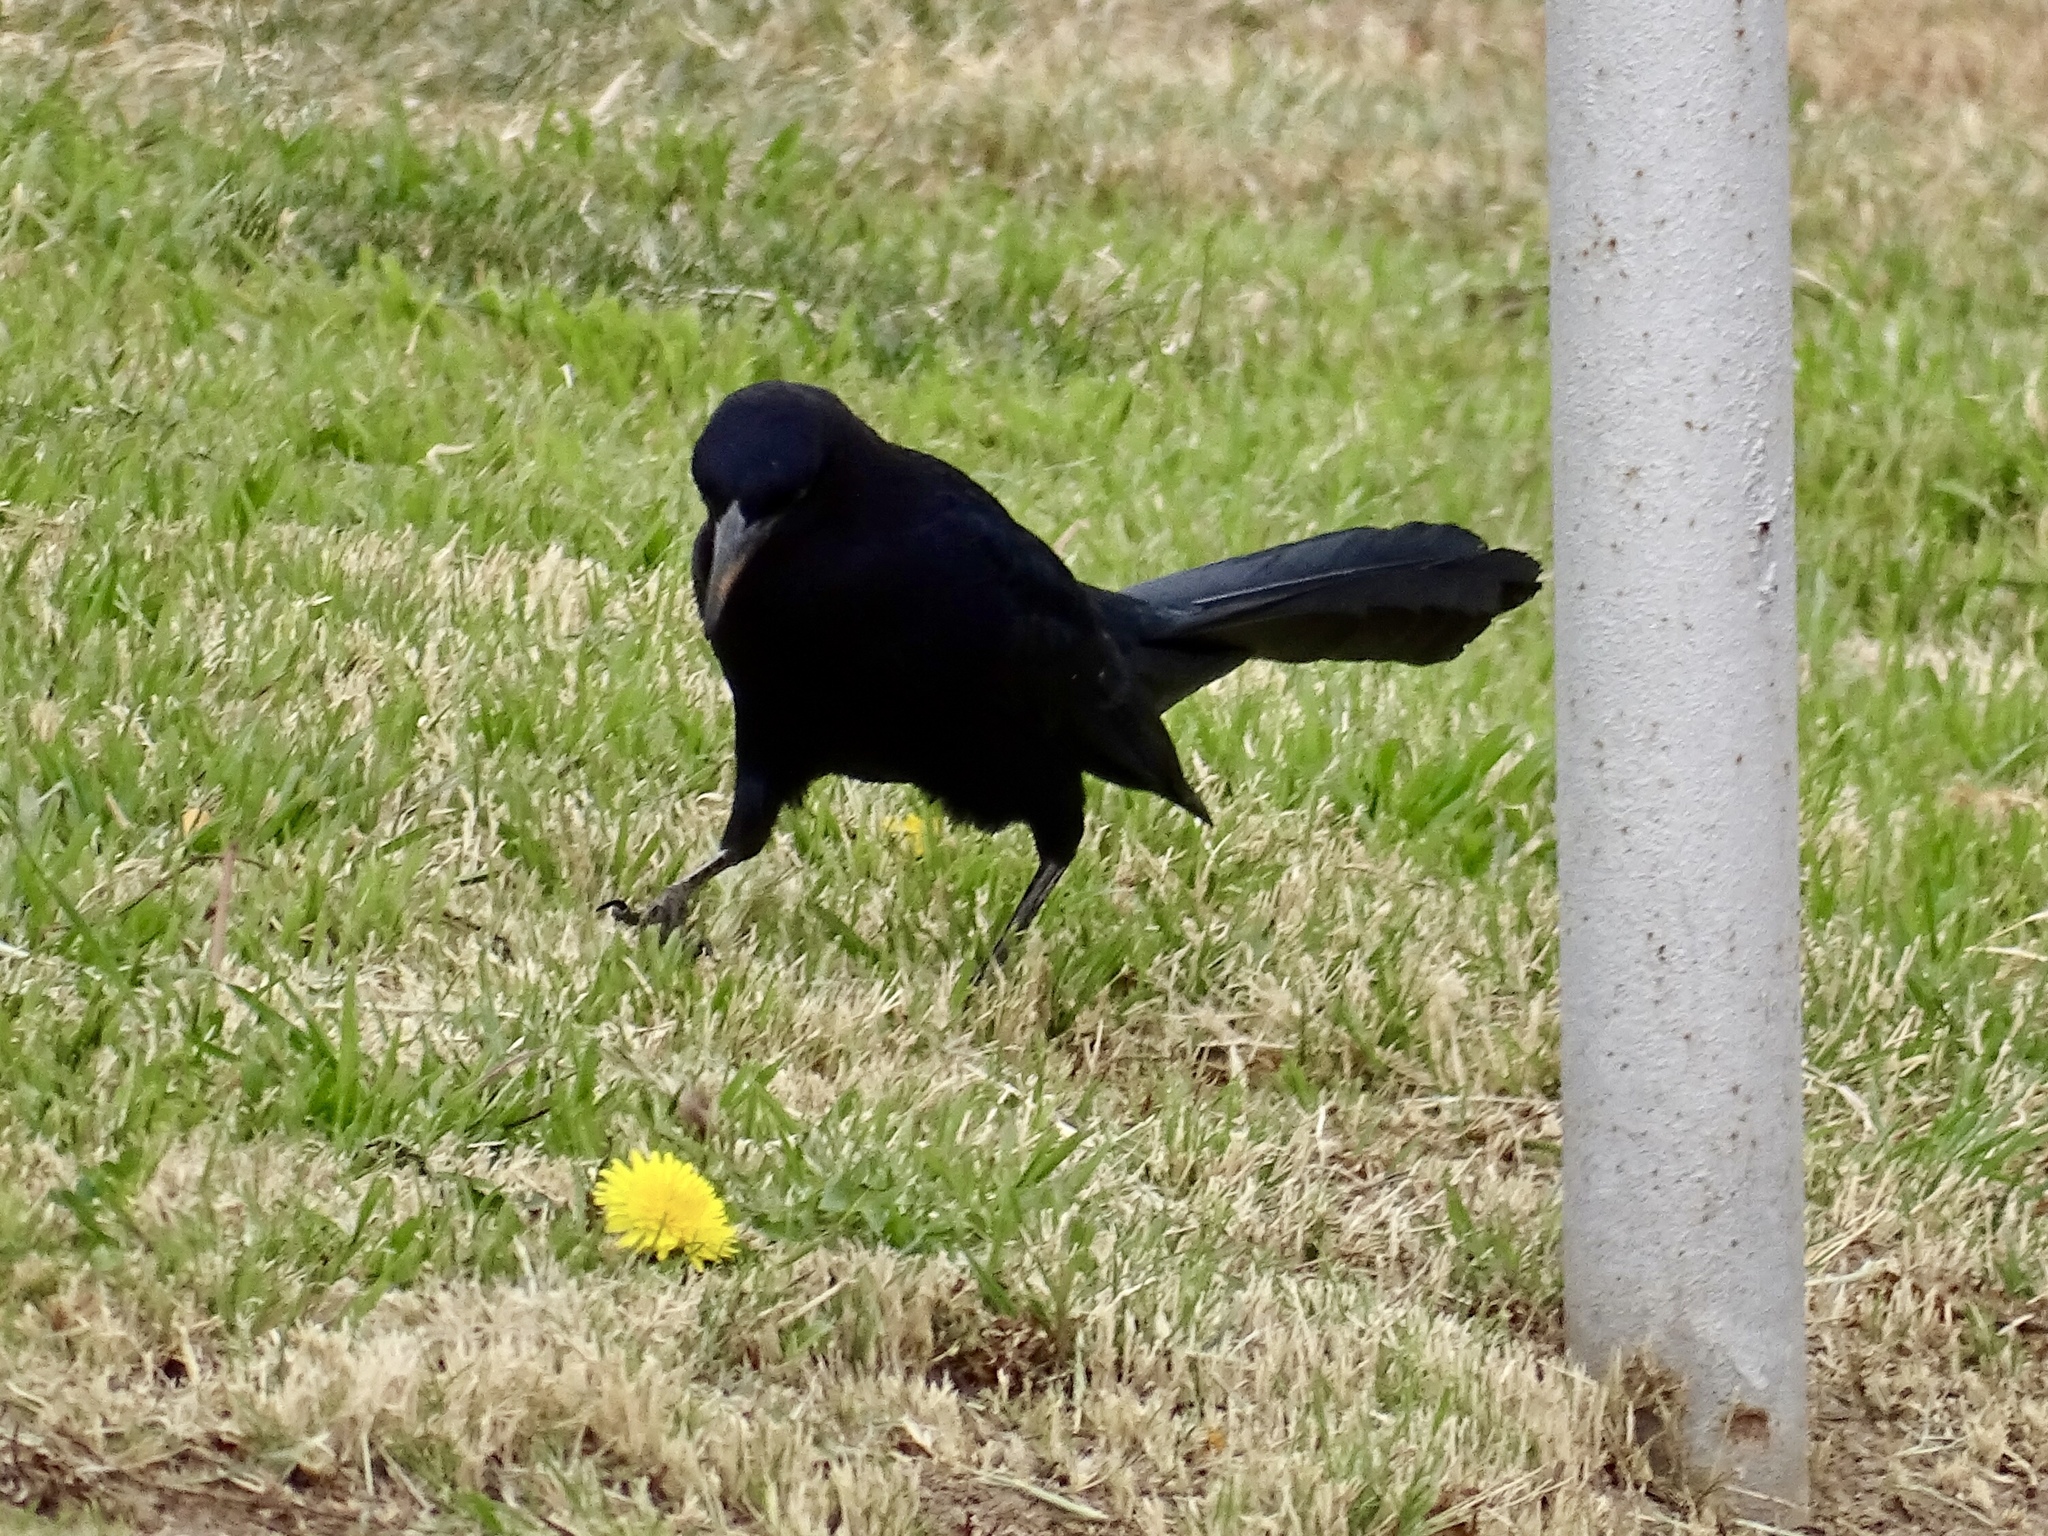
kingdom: Animalia
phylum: Chordata
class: Aves
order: Passeriformes
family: Icteridae
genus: Quiscalus
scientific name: Quiscalus mexicanus
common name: Great-tailed grackle
